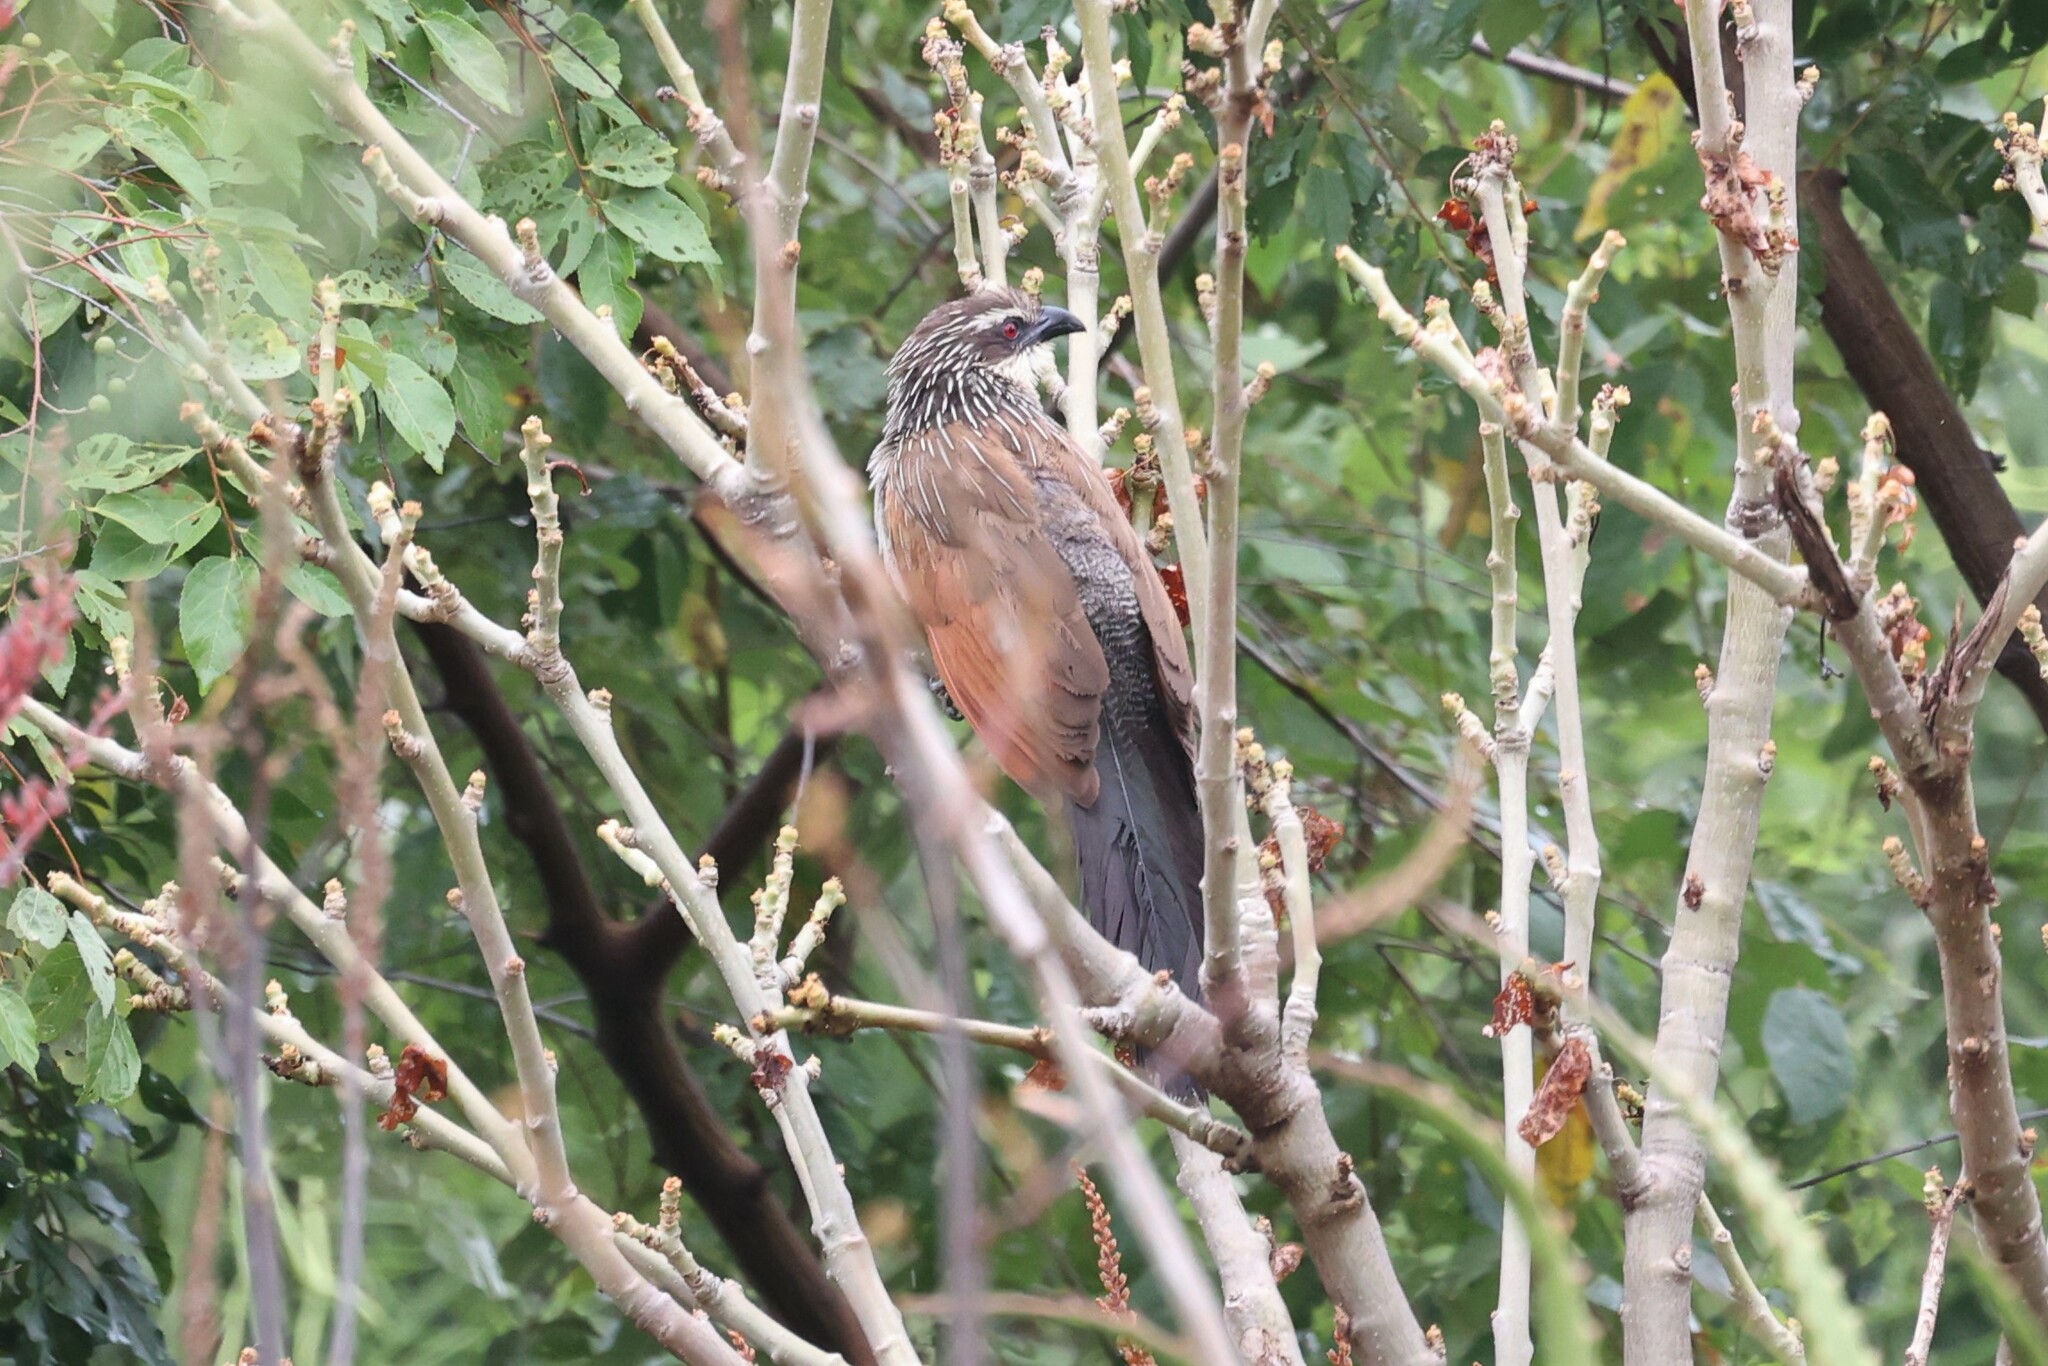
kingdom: Animalia
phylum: Chordata
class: Aves
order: Cuculiformes
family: Cuculidae
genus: Centropus
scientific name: Centropus superciliosus
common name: White-browed coucal
